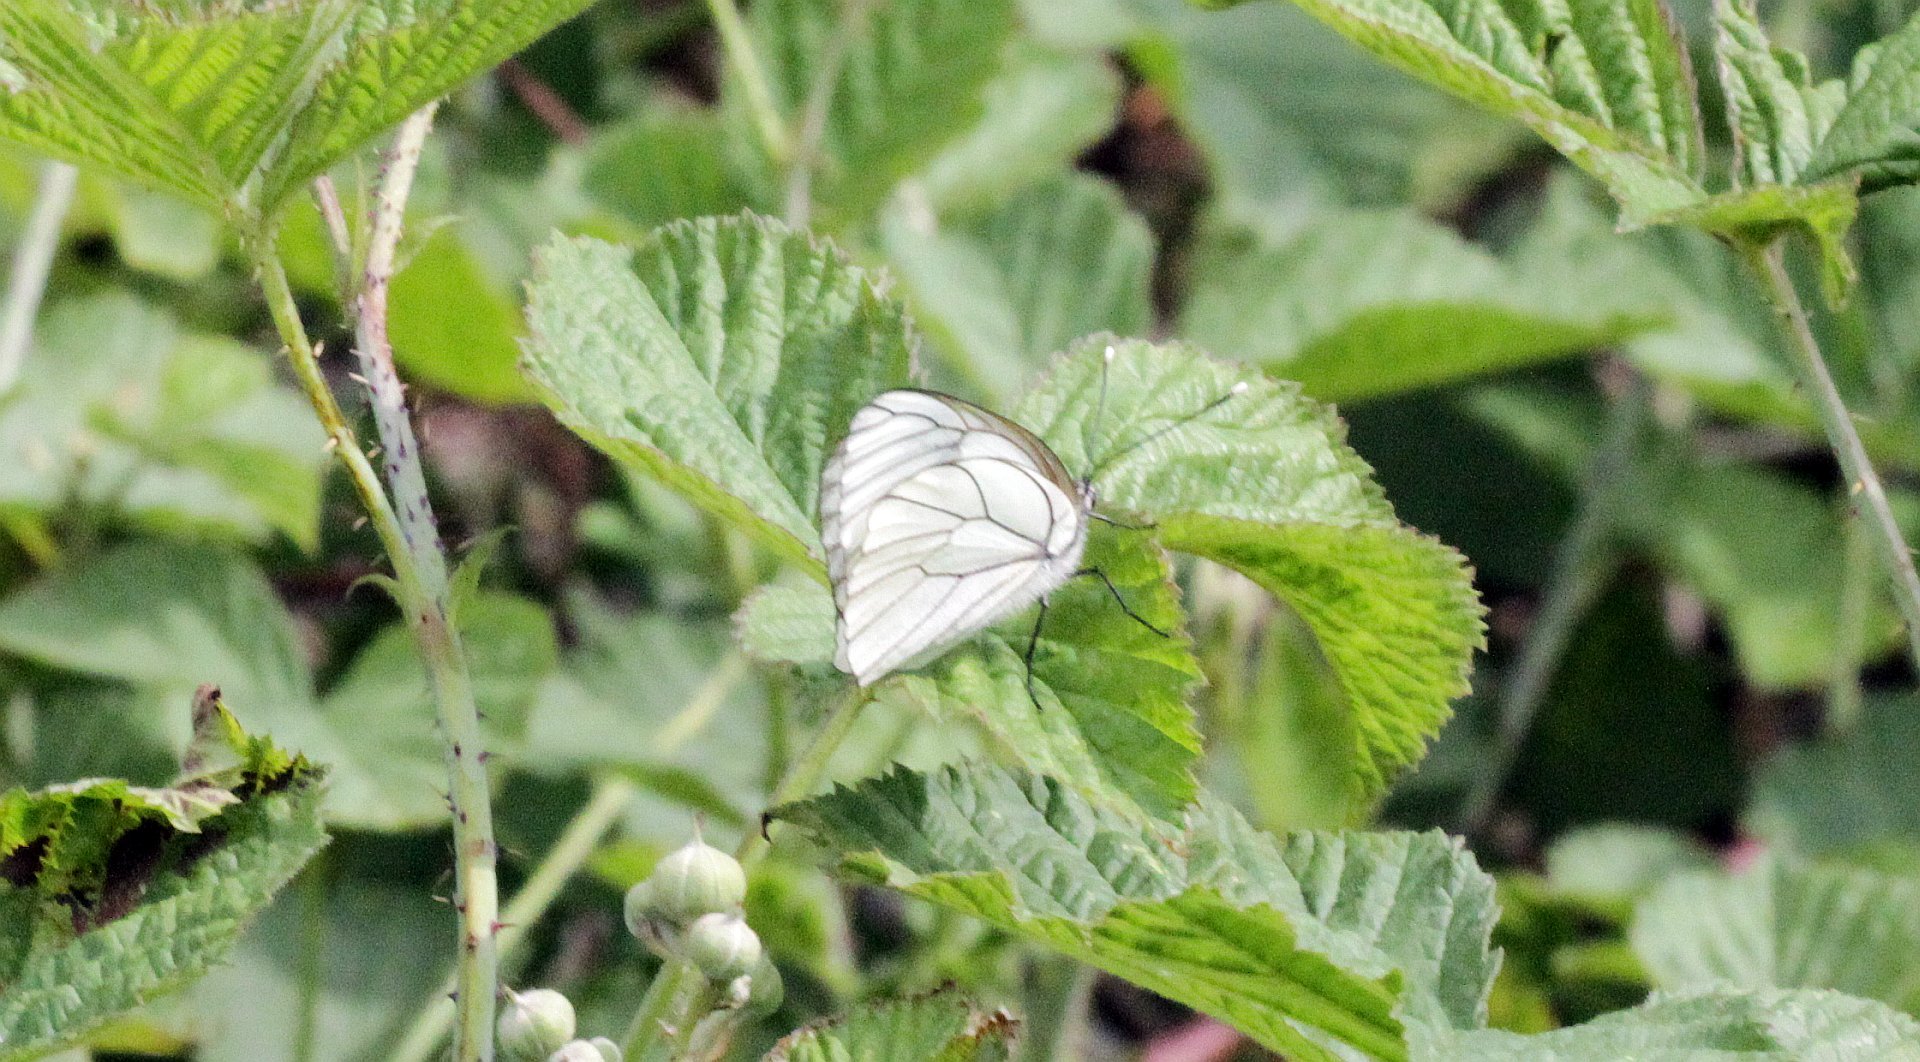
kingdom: Animalia
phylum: Arthropoda
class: Insecta
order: Lepidoptera
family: Pieridae
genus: Aporia
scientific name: Aporia crataegi
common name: Black-veined white
